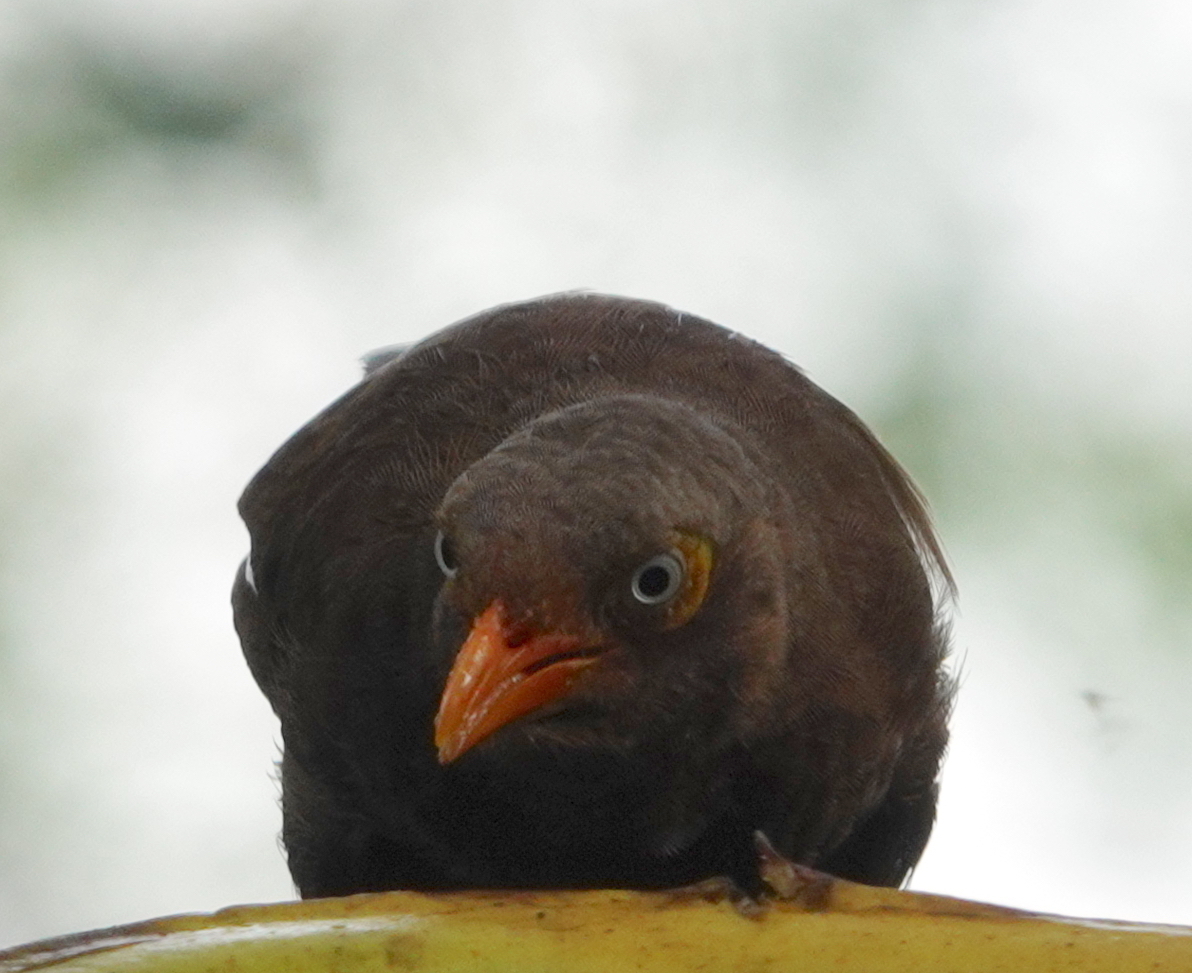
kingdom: Animalia
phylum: Chordata
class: Aves
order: Passeriformes
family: Leiothrichidae
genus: Turdoides
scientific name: Turdoides rufescens
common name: Orange-billed babbler
